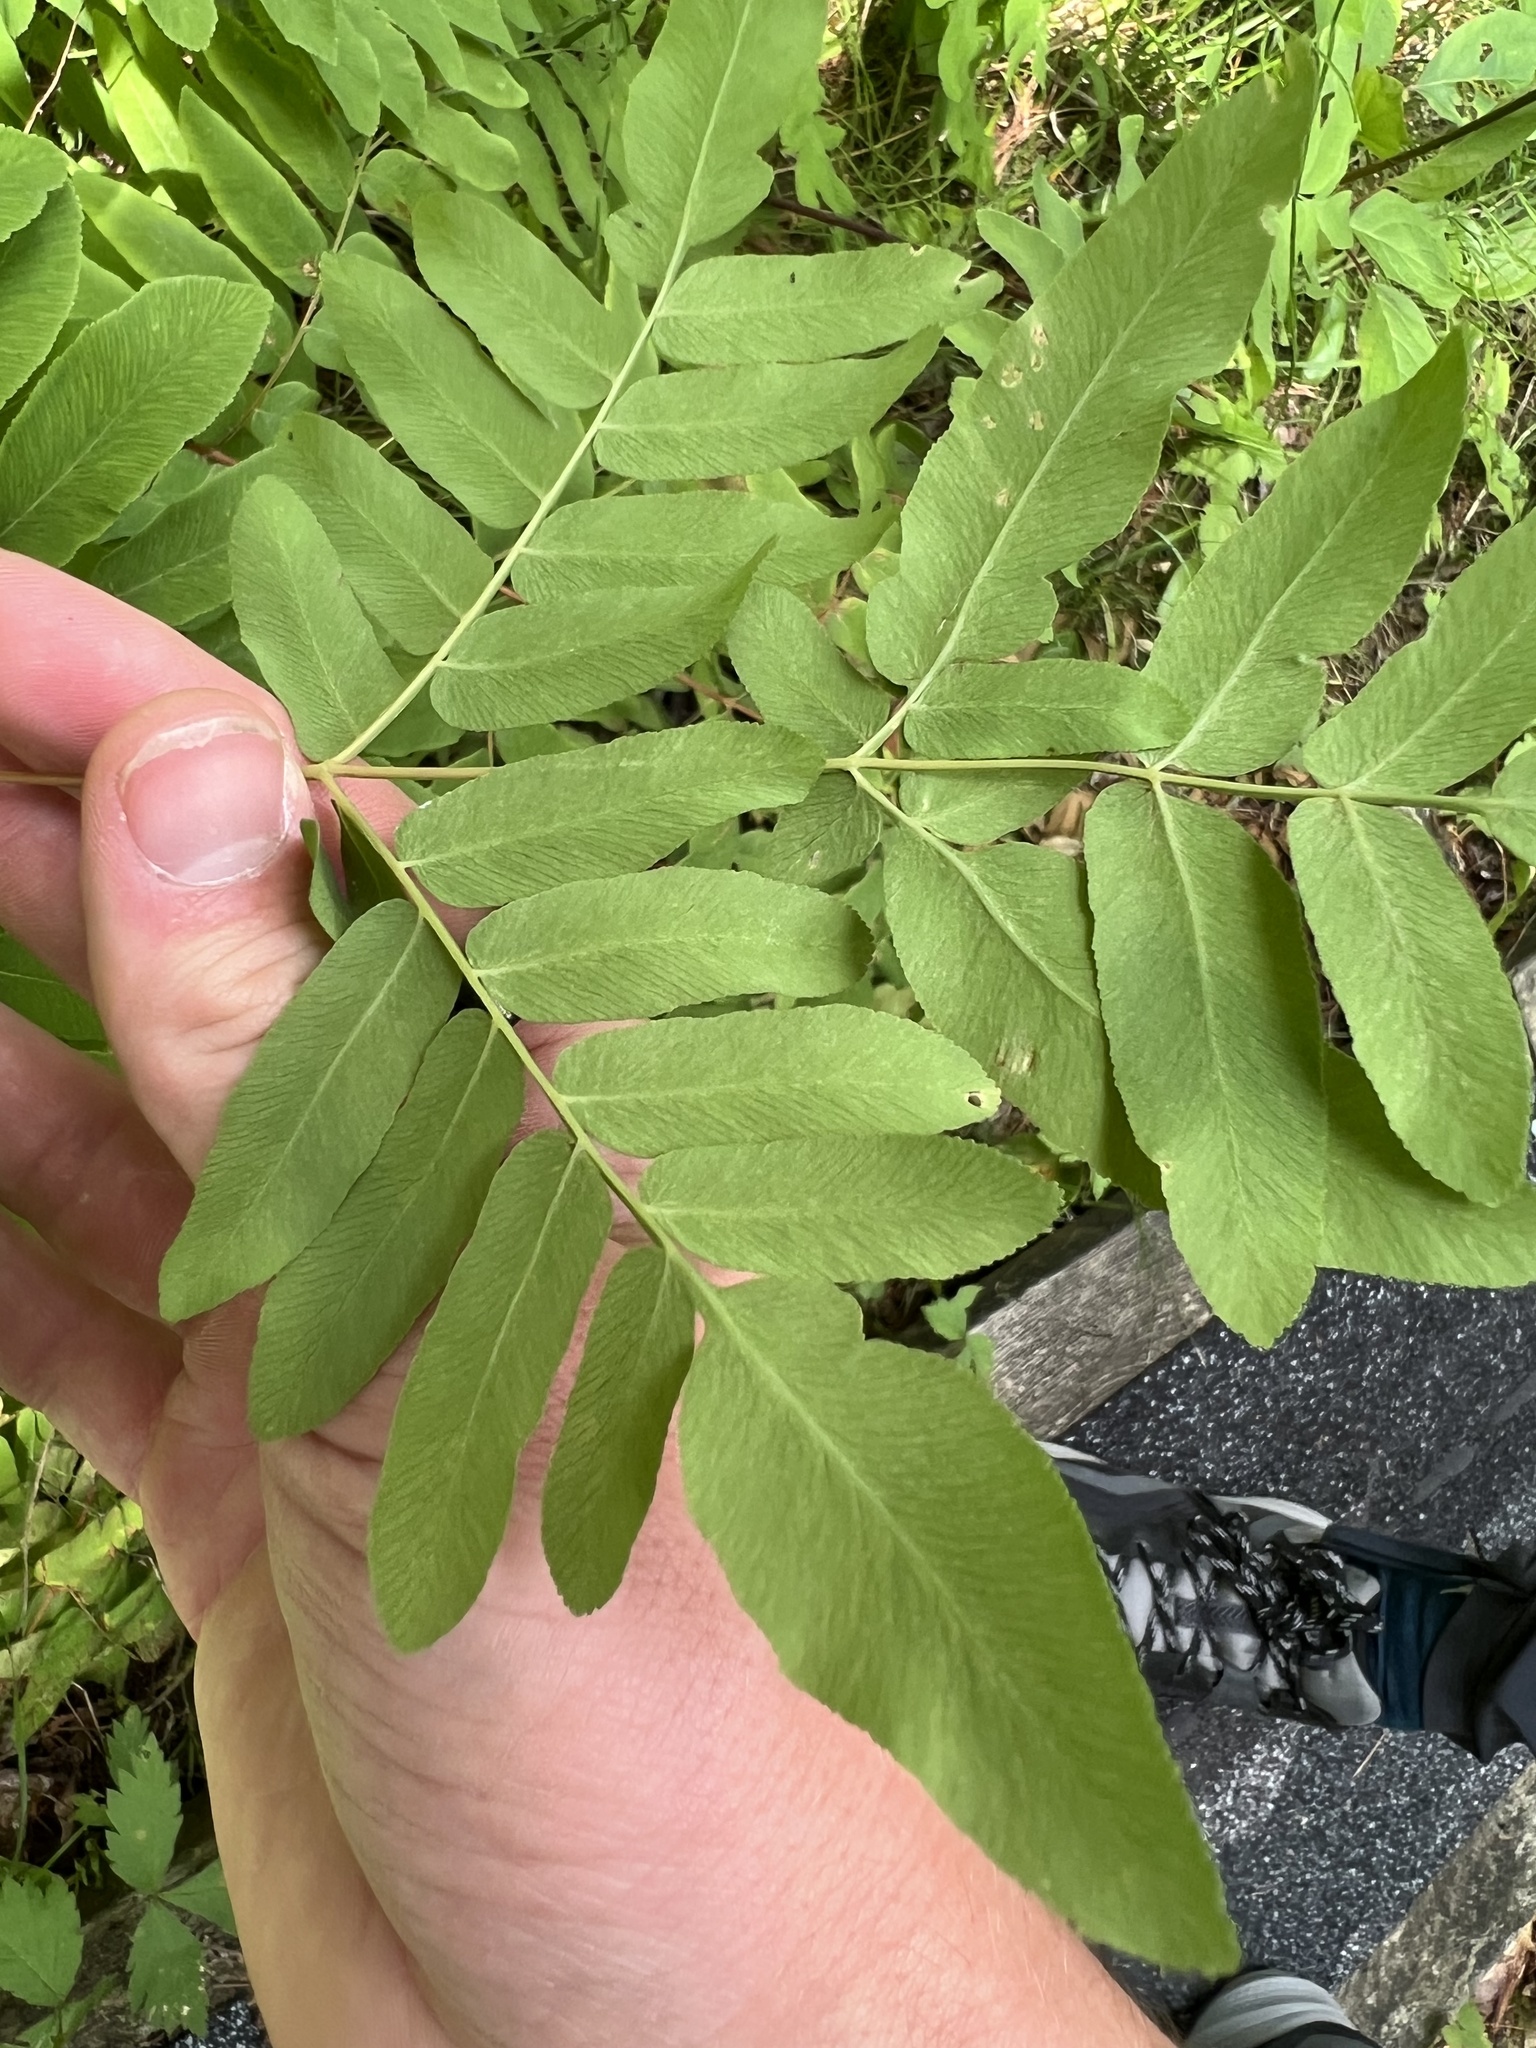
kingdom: Plantae
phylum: Tracheophyta
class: Polypodiopsida
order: Osmundales
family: Osmundaceae
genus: Osmunda
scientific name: Osmunda spectabilis
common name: American royal fern
